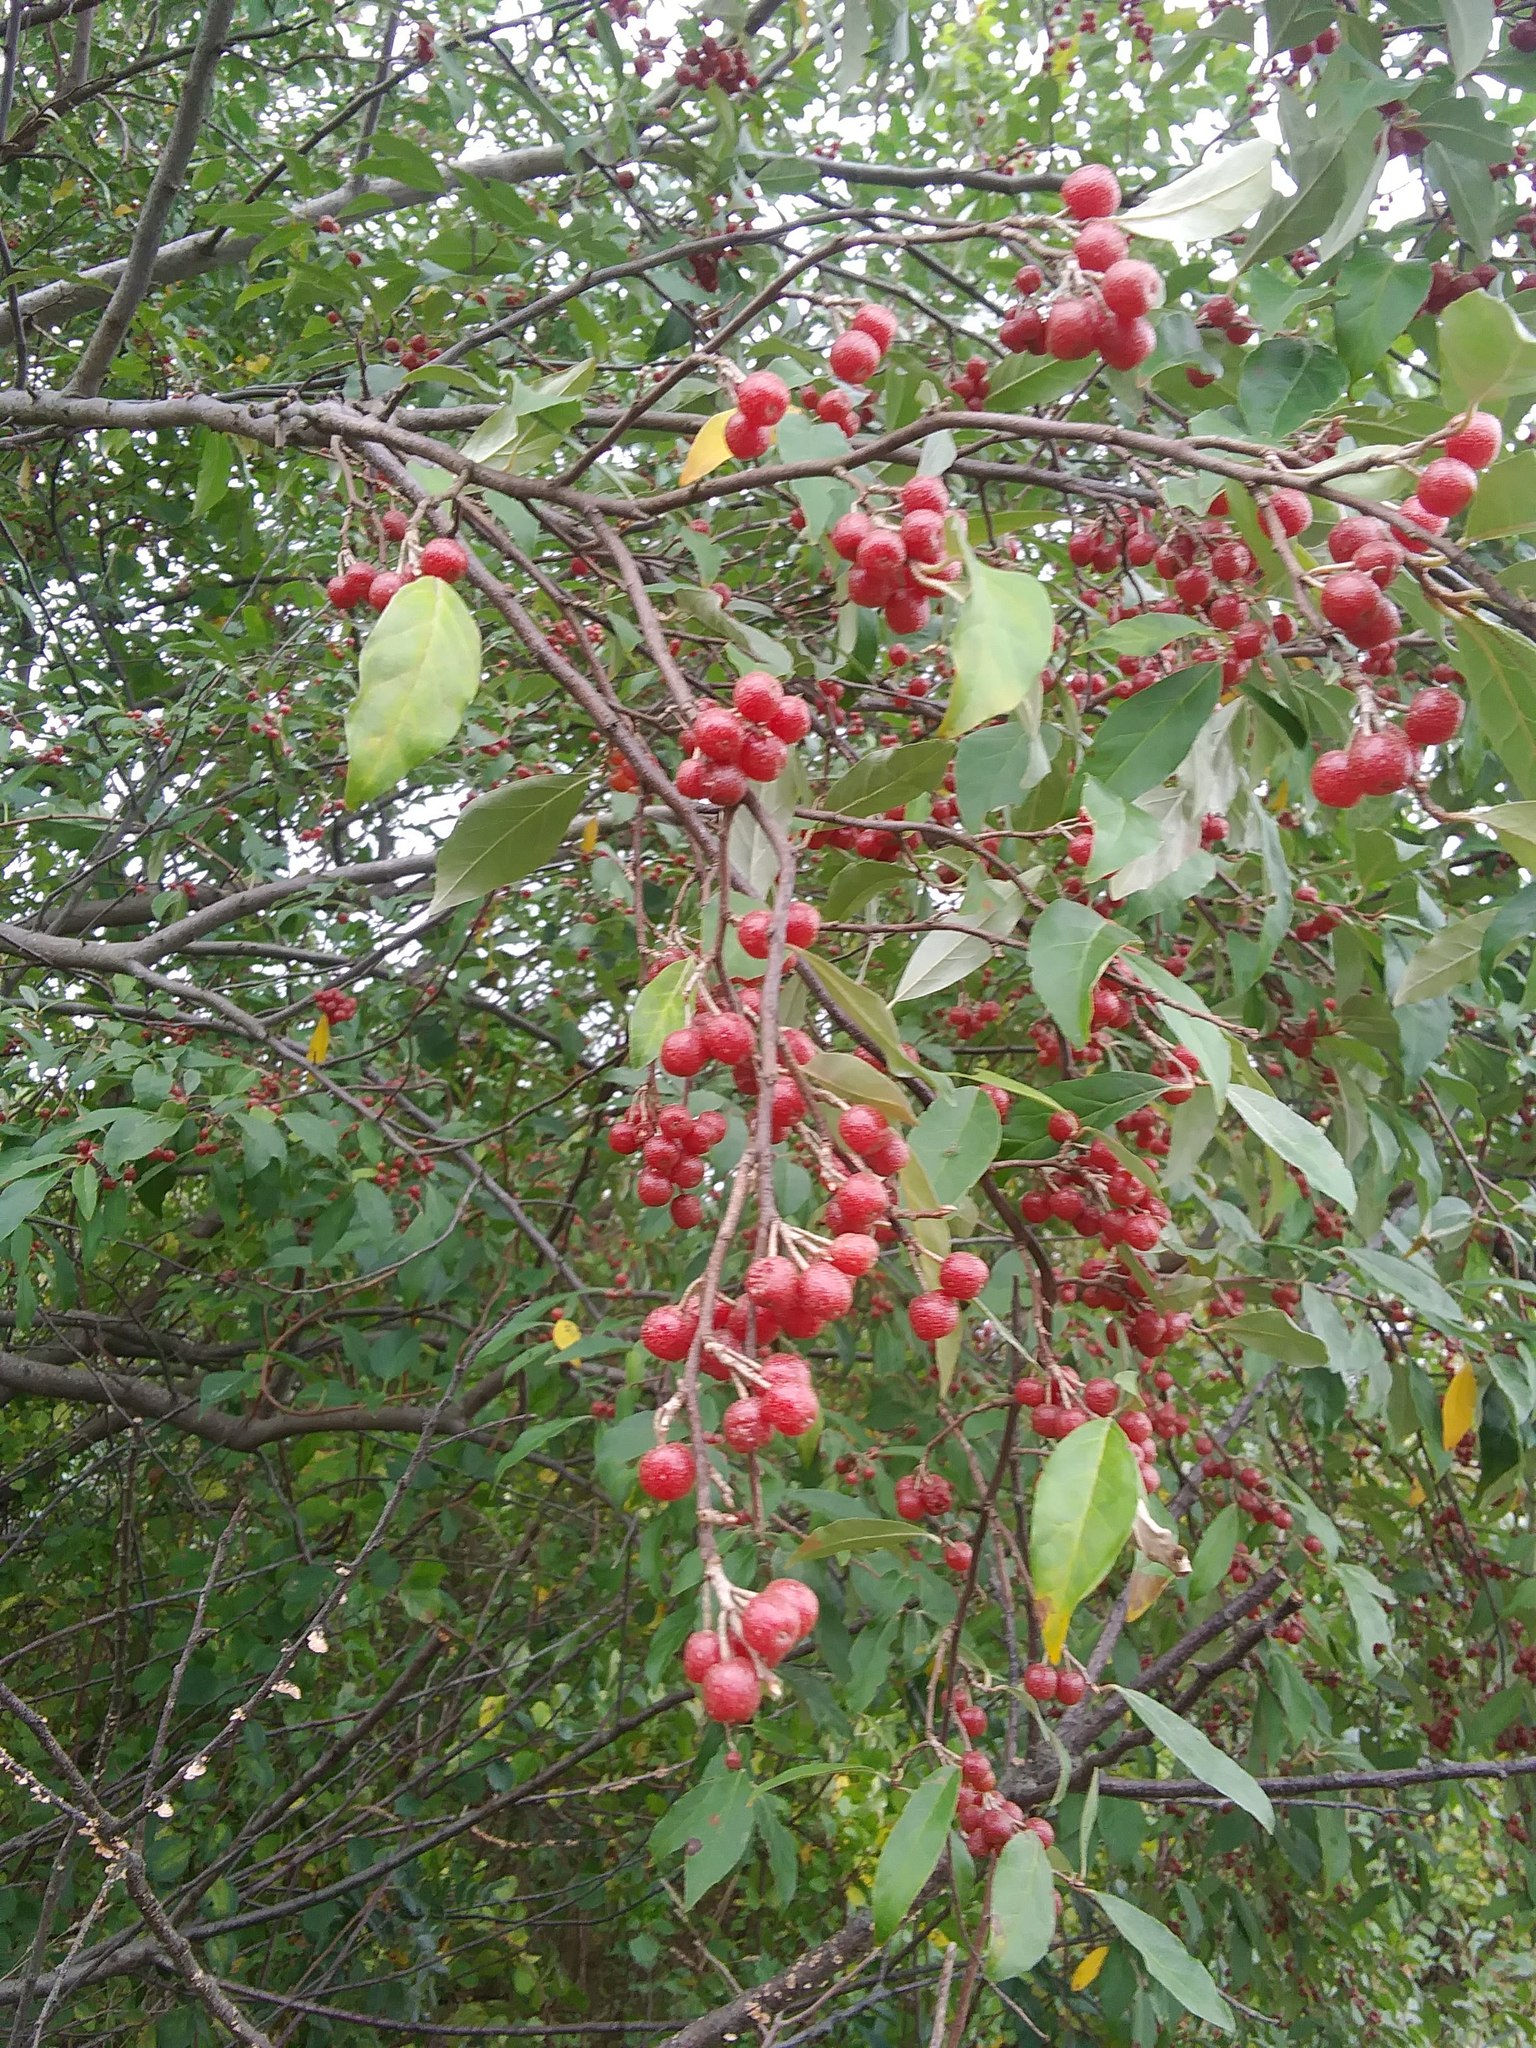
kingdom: Plantae
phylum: Tracheophyta
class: Magnoliopsida
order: Rosales
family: Elaeagnaceae
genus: Elaeagnus
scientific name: Elaeagnus umbellata
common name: Autumn olive
